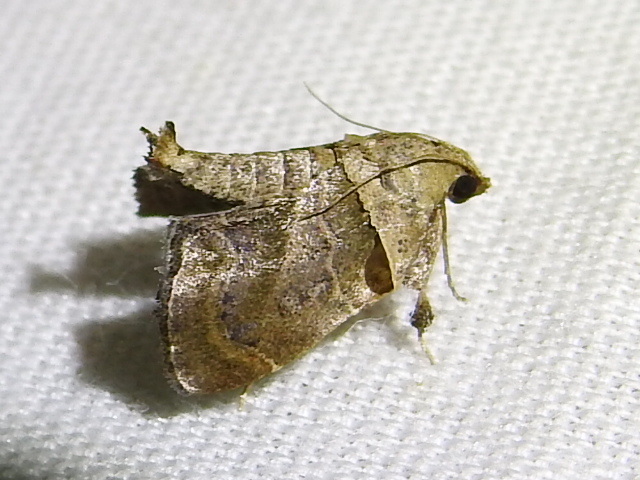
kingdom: Animalia
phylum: Arthropoda
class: Insecta
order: Lepidoptera
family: Pyralidae
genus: Tosale
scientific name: Tosale aucta
